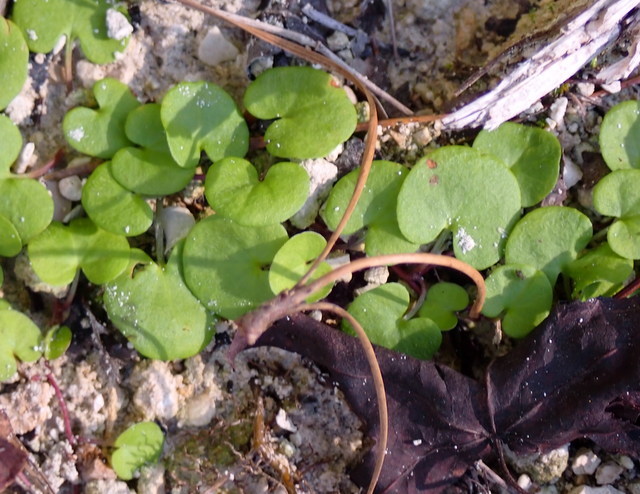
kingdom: Plantae
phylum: Tracheophyta
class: Magnoliopsida
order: Solanales
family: Convolvulaceae
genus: Dichondra
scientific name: Dichondra carolinensis
